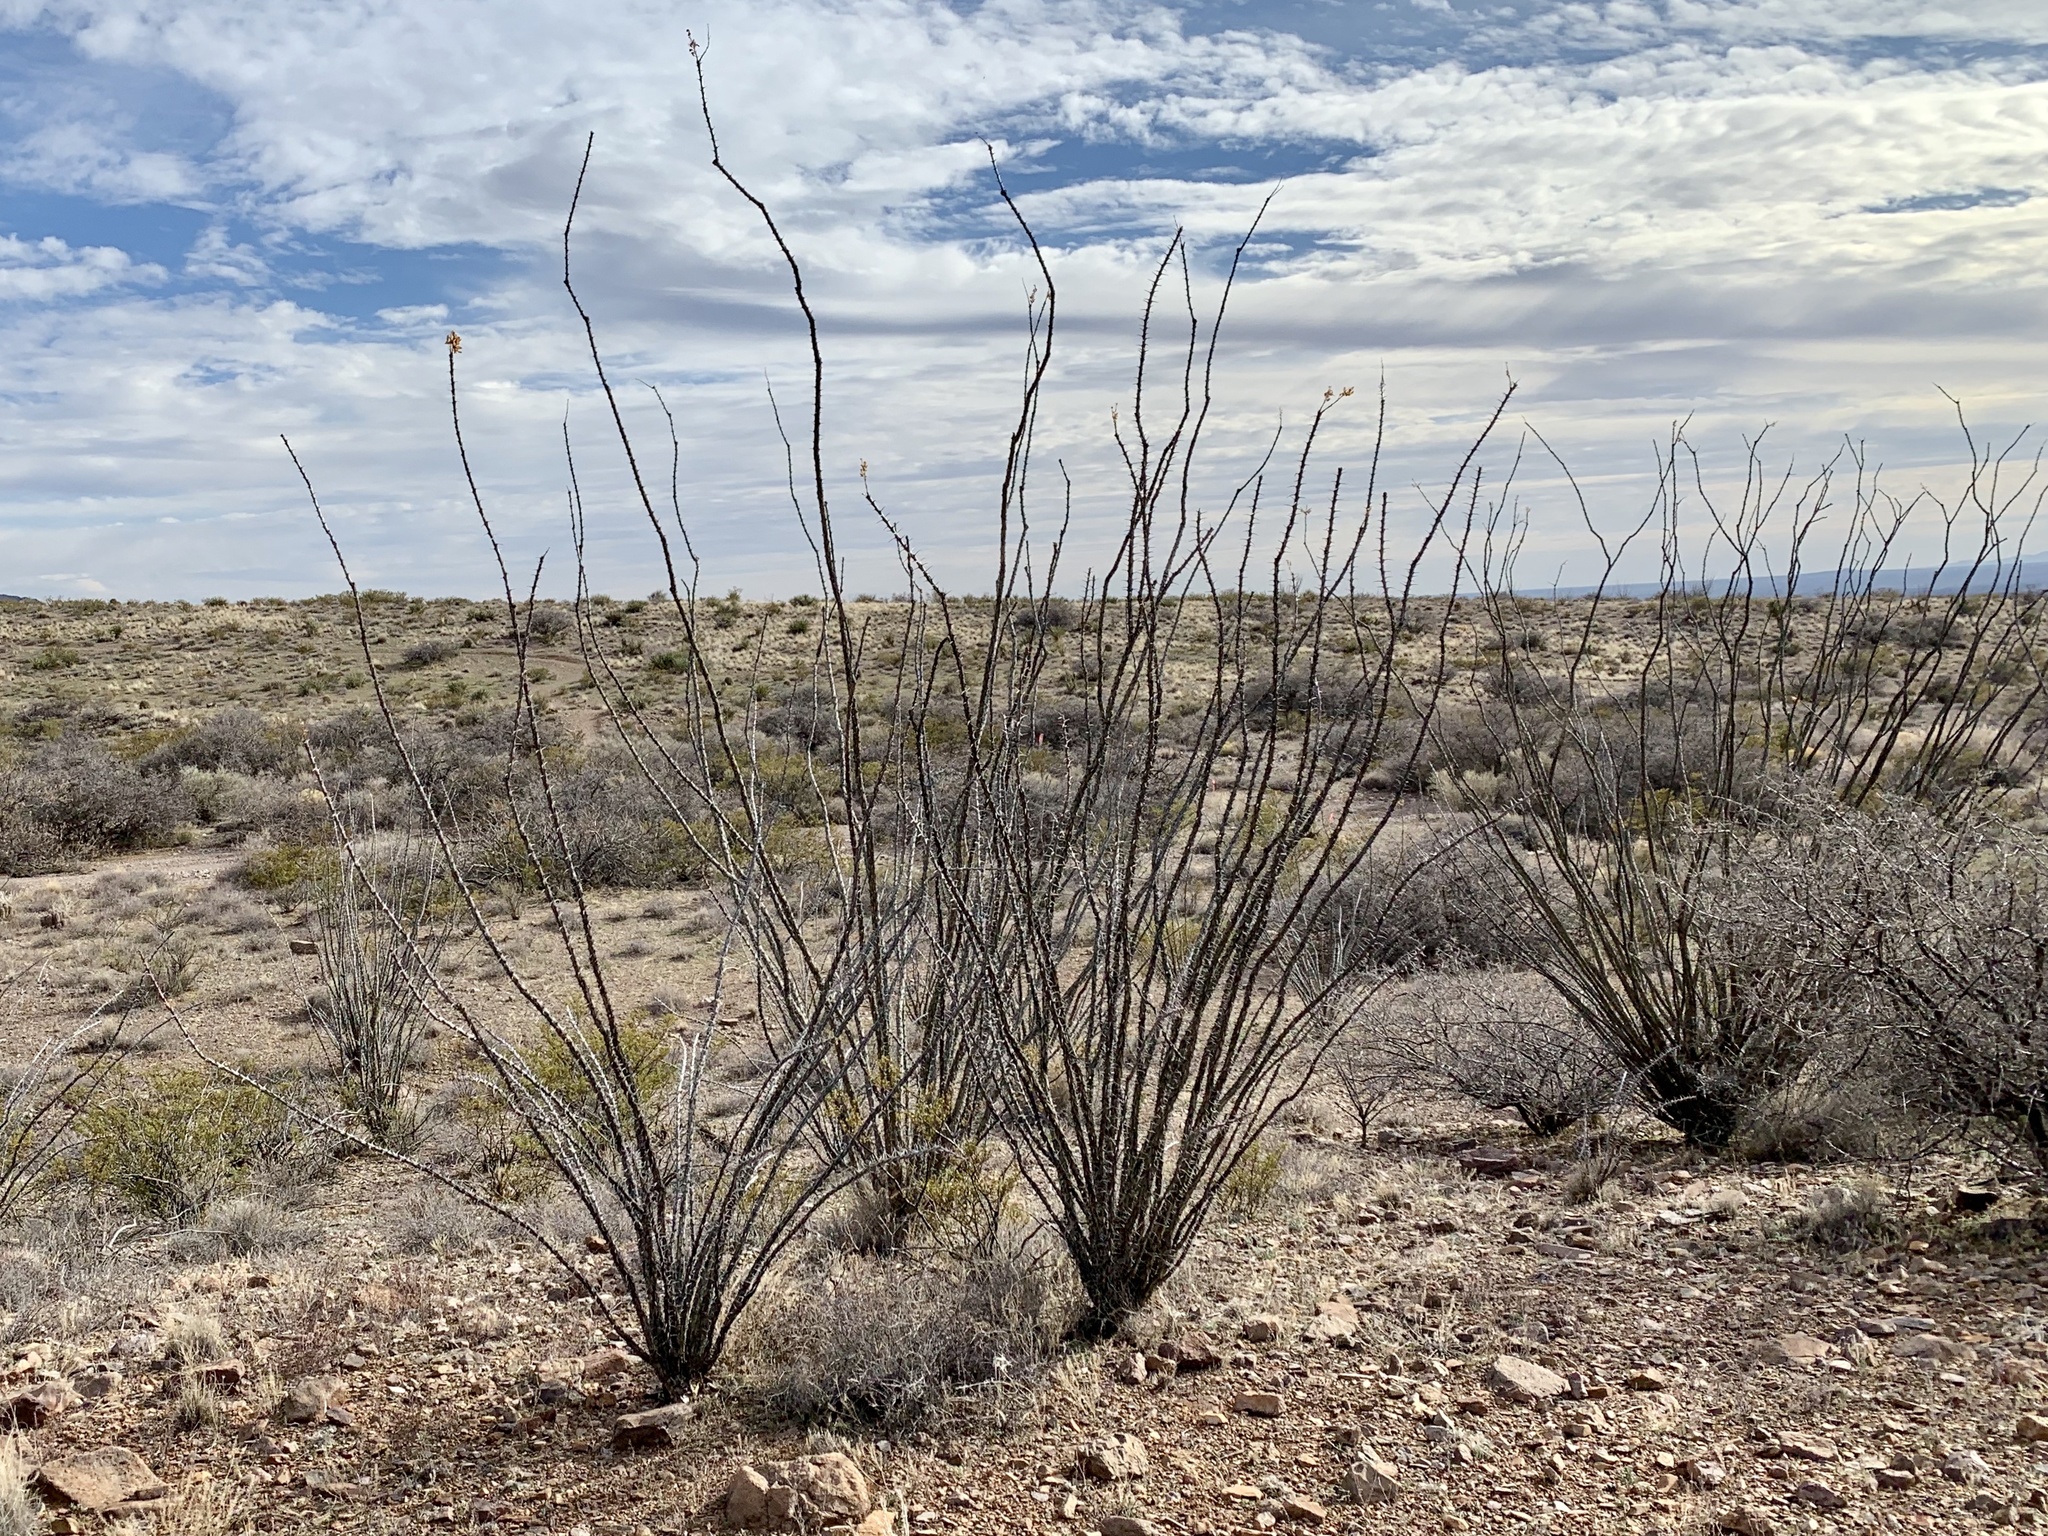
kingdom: Plantae
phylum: Tracheophyta
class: Magnoliopsida
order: Ericales
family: Fouquieriaceae
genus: Fouquieria
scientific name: Fouquieria splendens
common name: Vine-cactus
